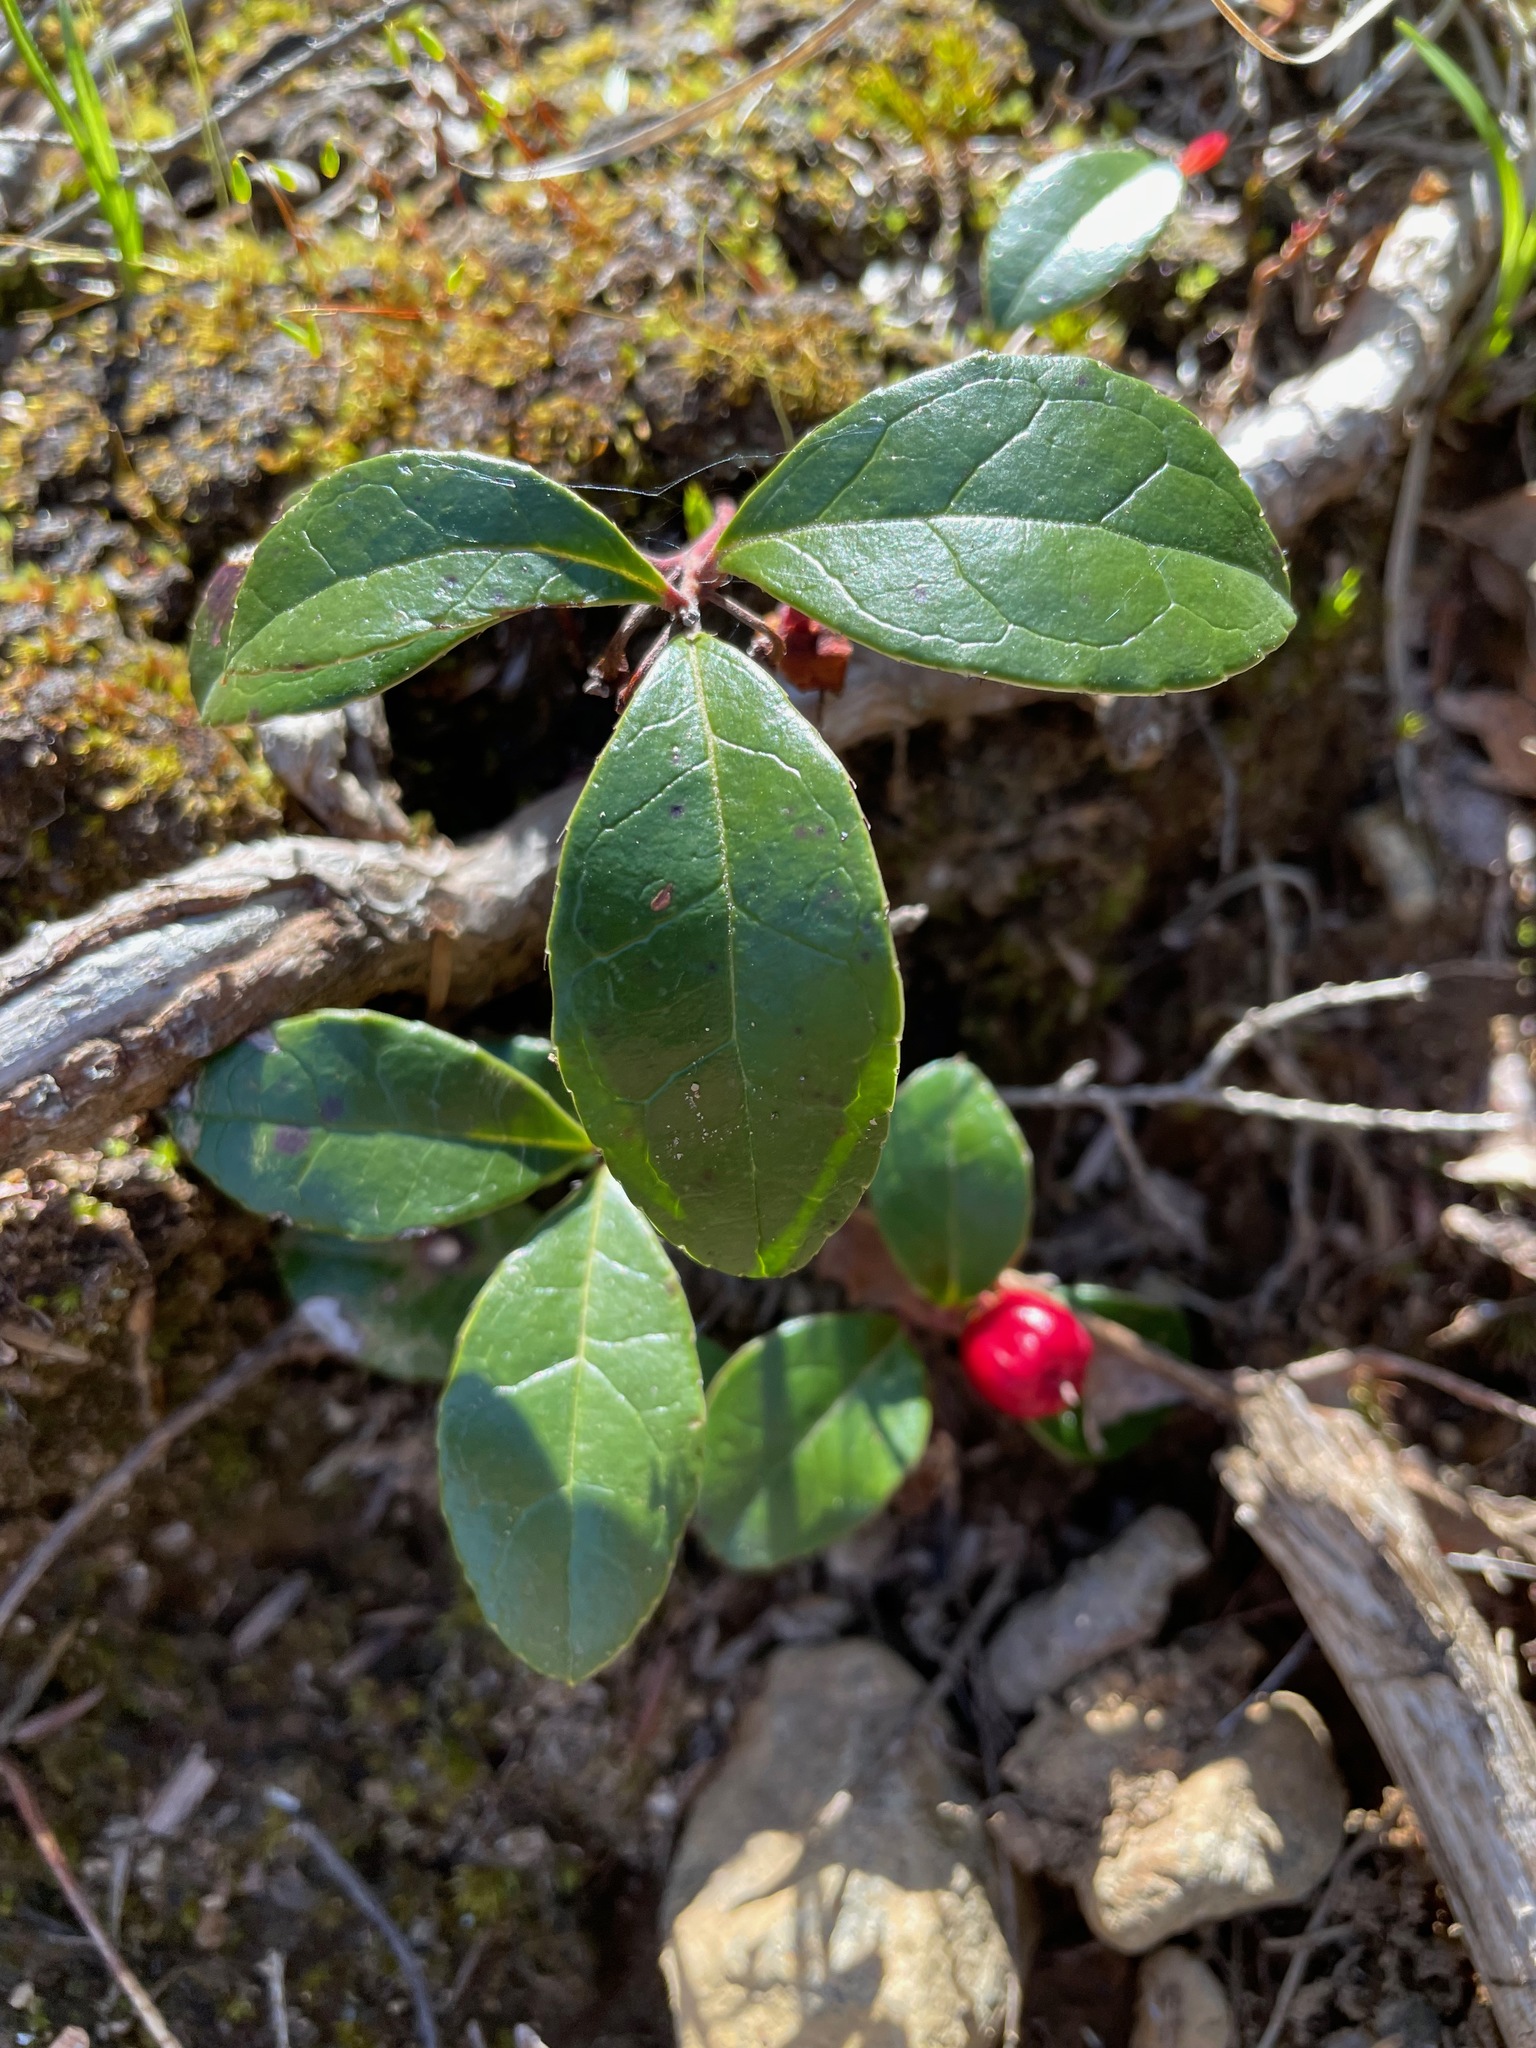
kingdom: Plantae
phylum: Tracheophyta
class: Magnoliopsida
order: Ericales
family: Ericaceae
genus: Gaultheria
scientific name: Gaultheria procumbens
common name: Checkerberry
